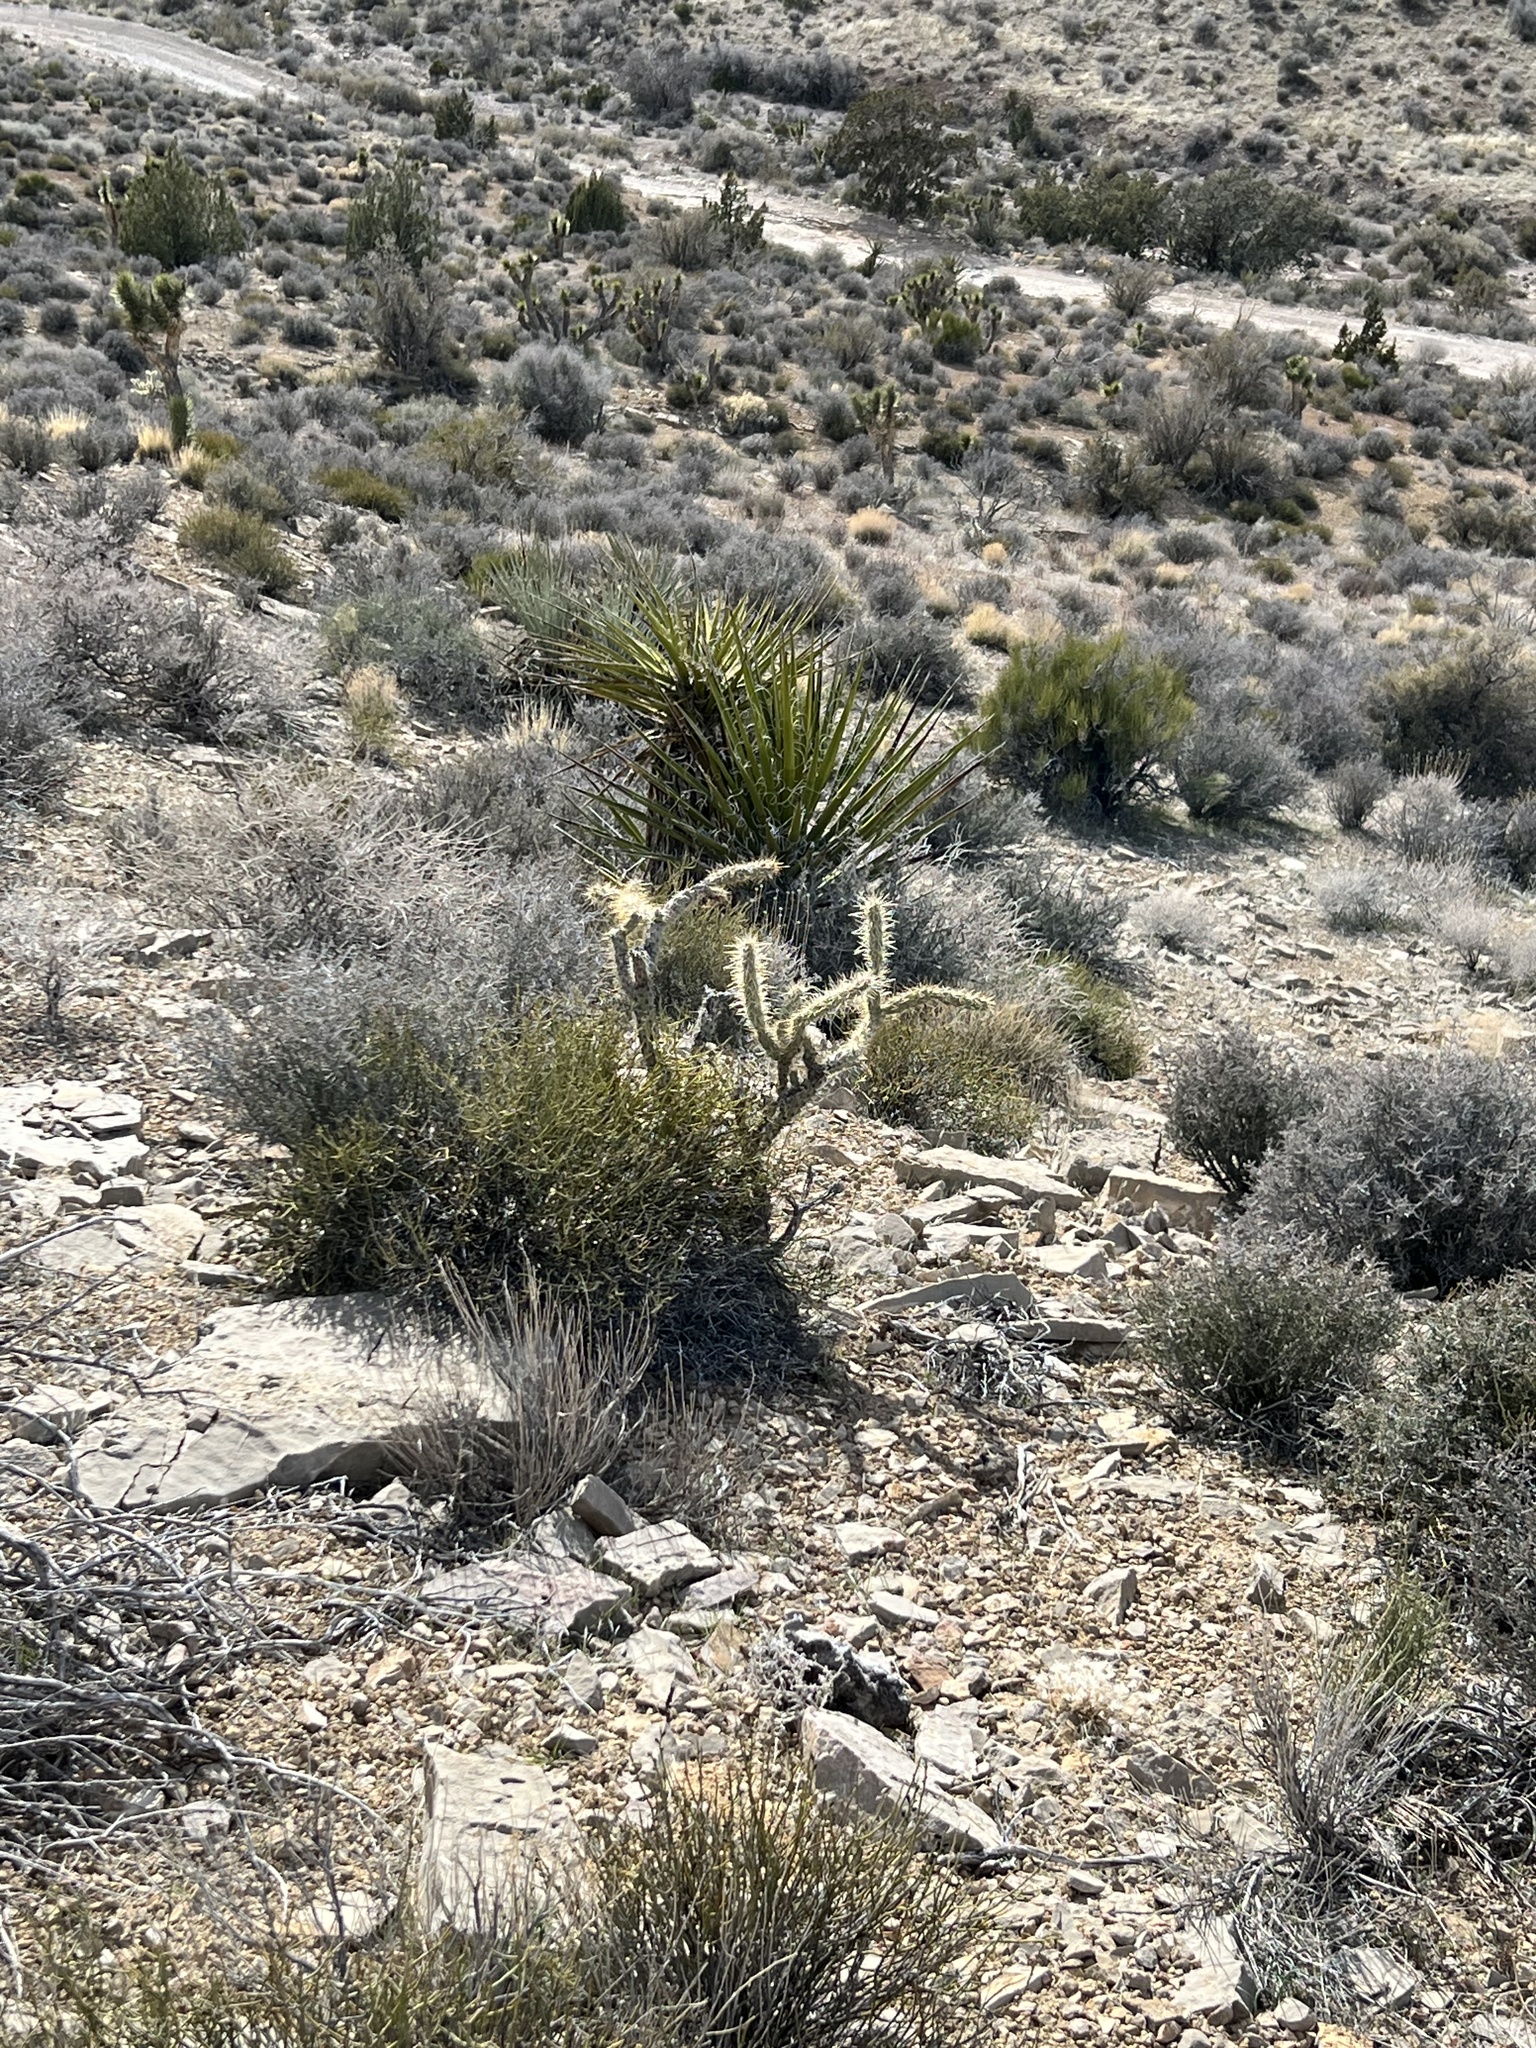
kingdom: Plantae
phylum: Tracheophyta
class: Magnoliopsida
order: Caryophyllales
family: Cactaceae
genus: Cylindropuntia
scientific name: Cylindropuntia acanthocarpa
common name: Buckhorn cholla
